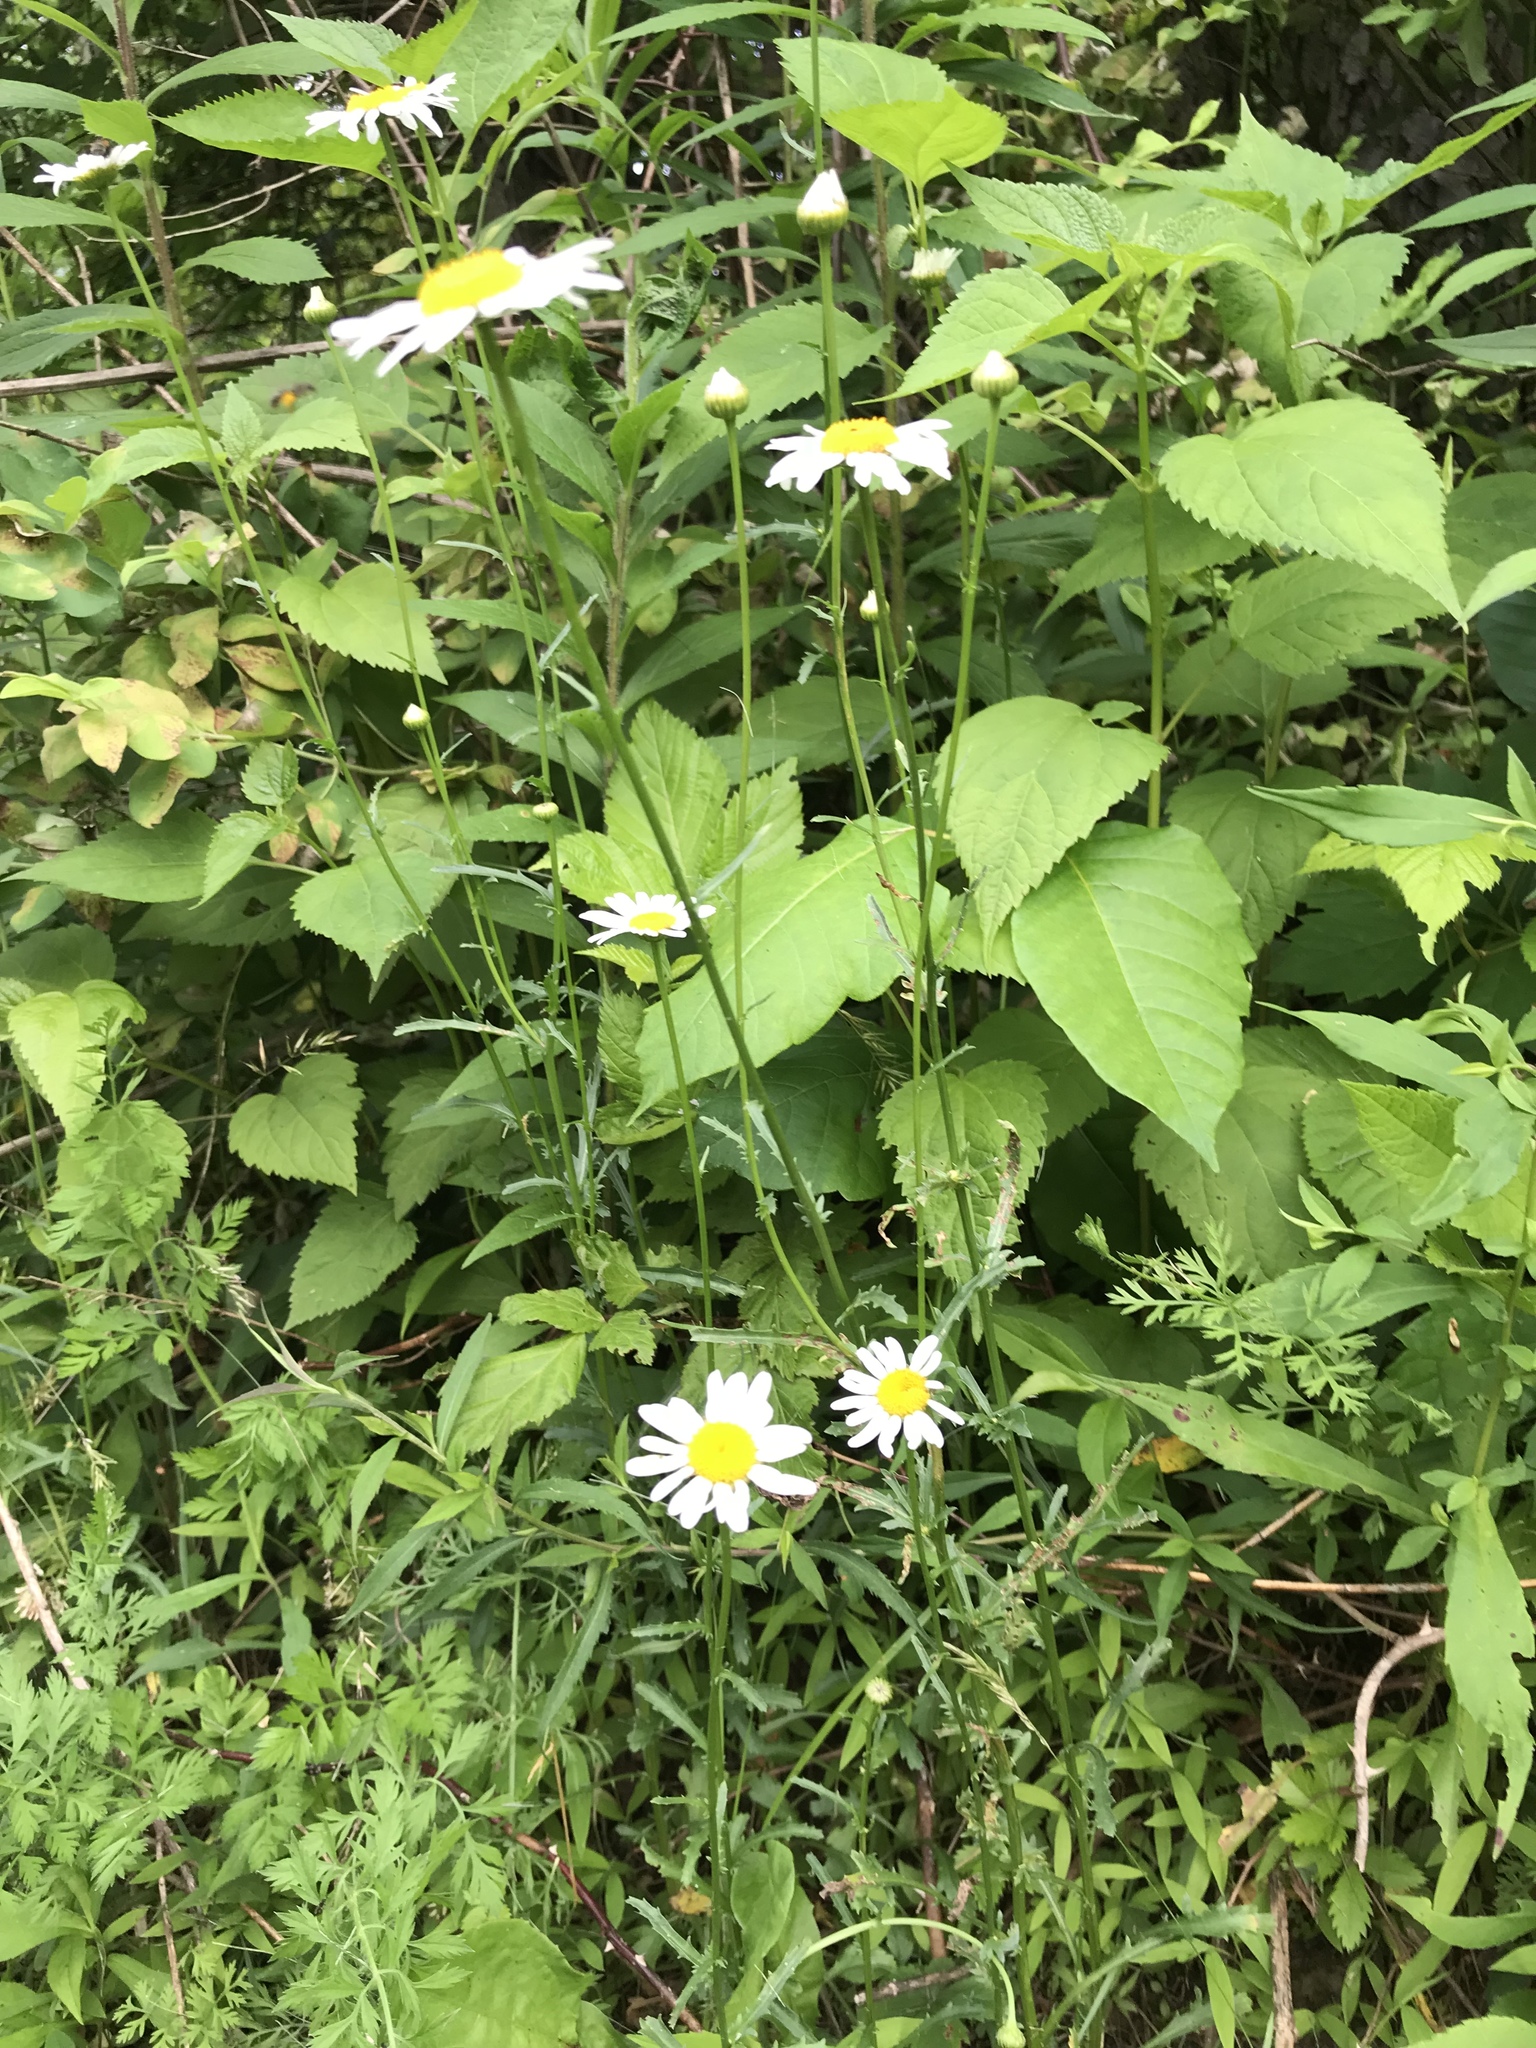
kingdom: Plantae
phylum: Tracheophyta
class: Magnoliopsida
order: Asterales
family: Asteraceae
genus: Leucanthemum
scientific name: Leucanthemum vulgare
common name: Oxeye daisy
